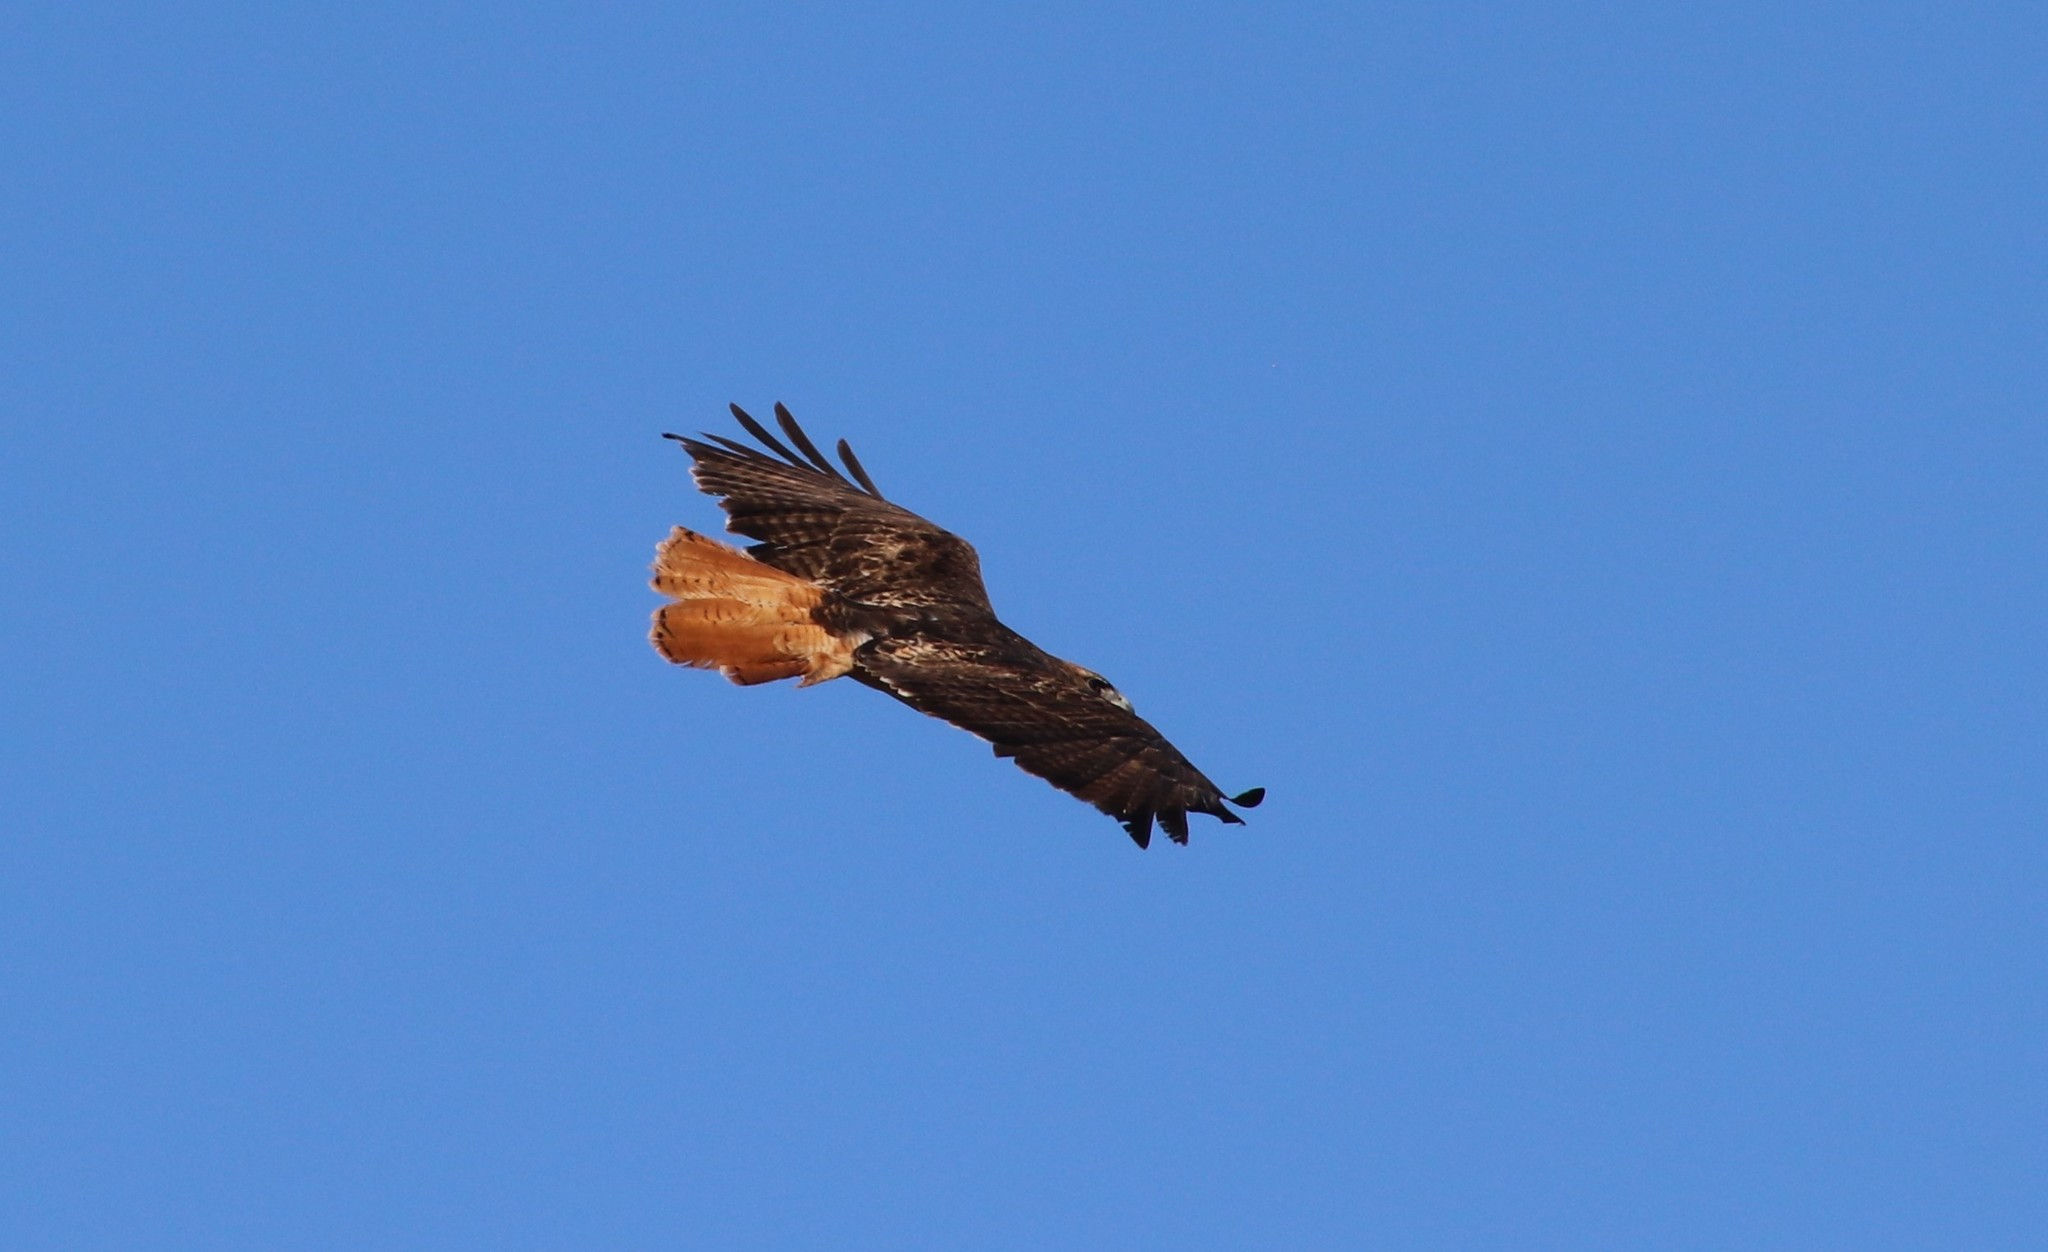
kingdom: Animalia
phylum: Chordata
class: Aves
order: Accipitriformes
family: Accipitridae
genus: Buteo
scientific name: Buteo jamaicensis
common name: Red-tailed hawk
